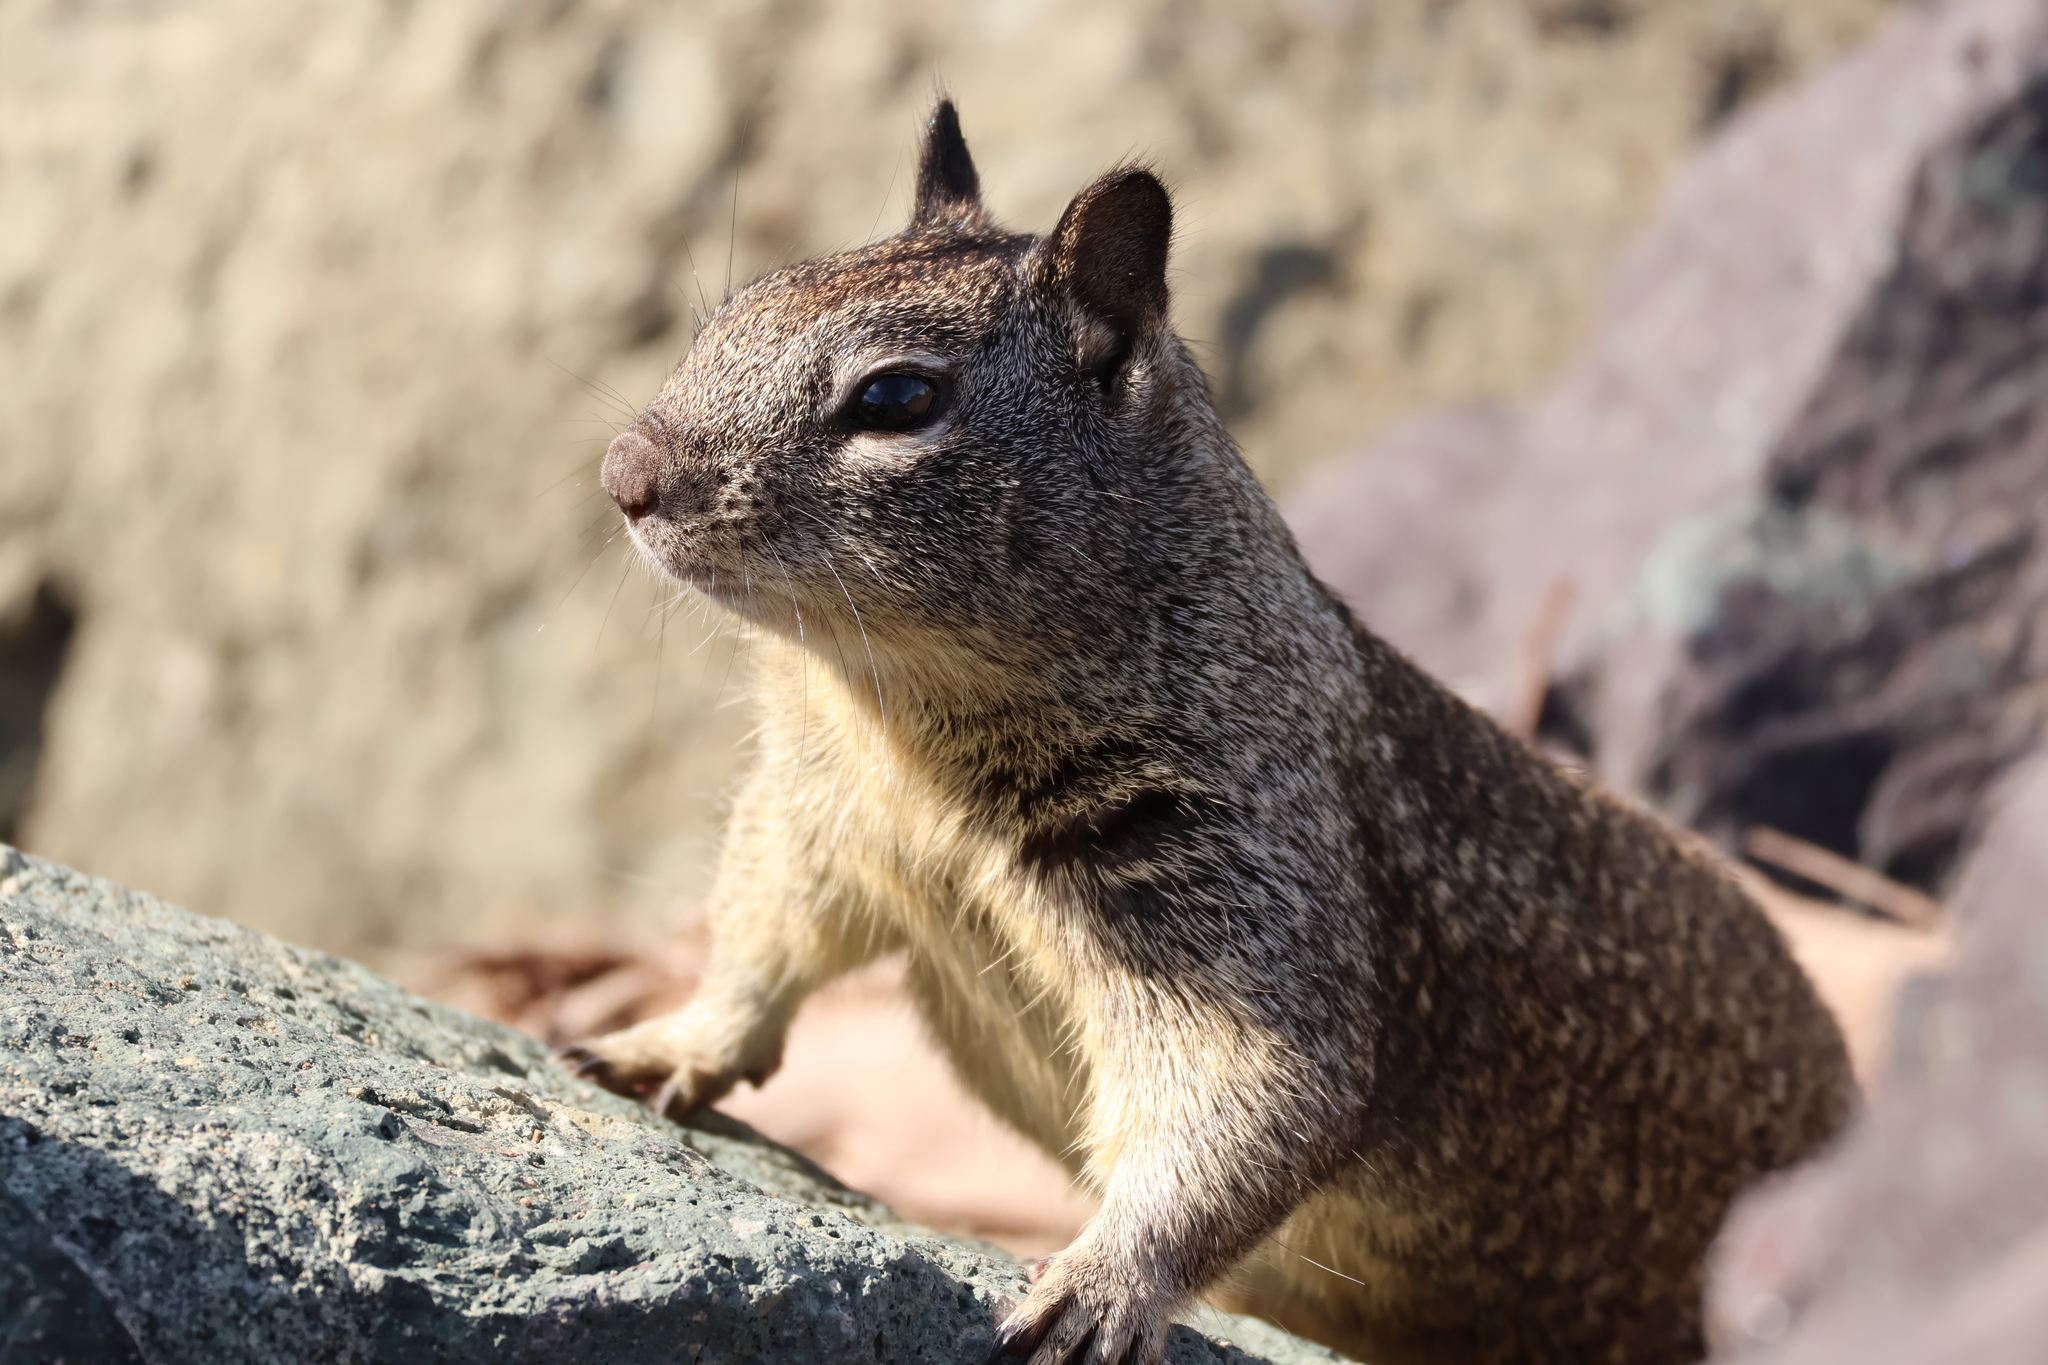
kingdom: Animalia
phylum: Chordata
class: Mammalia
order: Rodentia
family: Sciuridae
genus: Otospermophilus
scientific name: Otospermophilus beecheyi
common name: California ground squirrel
